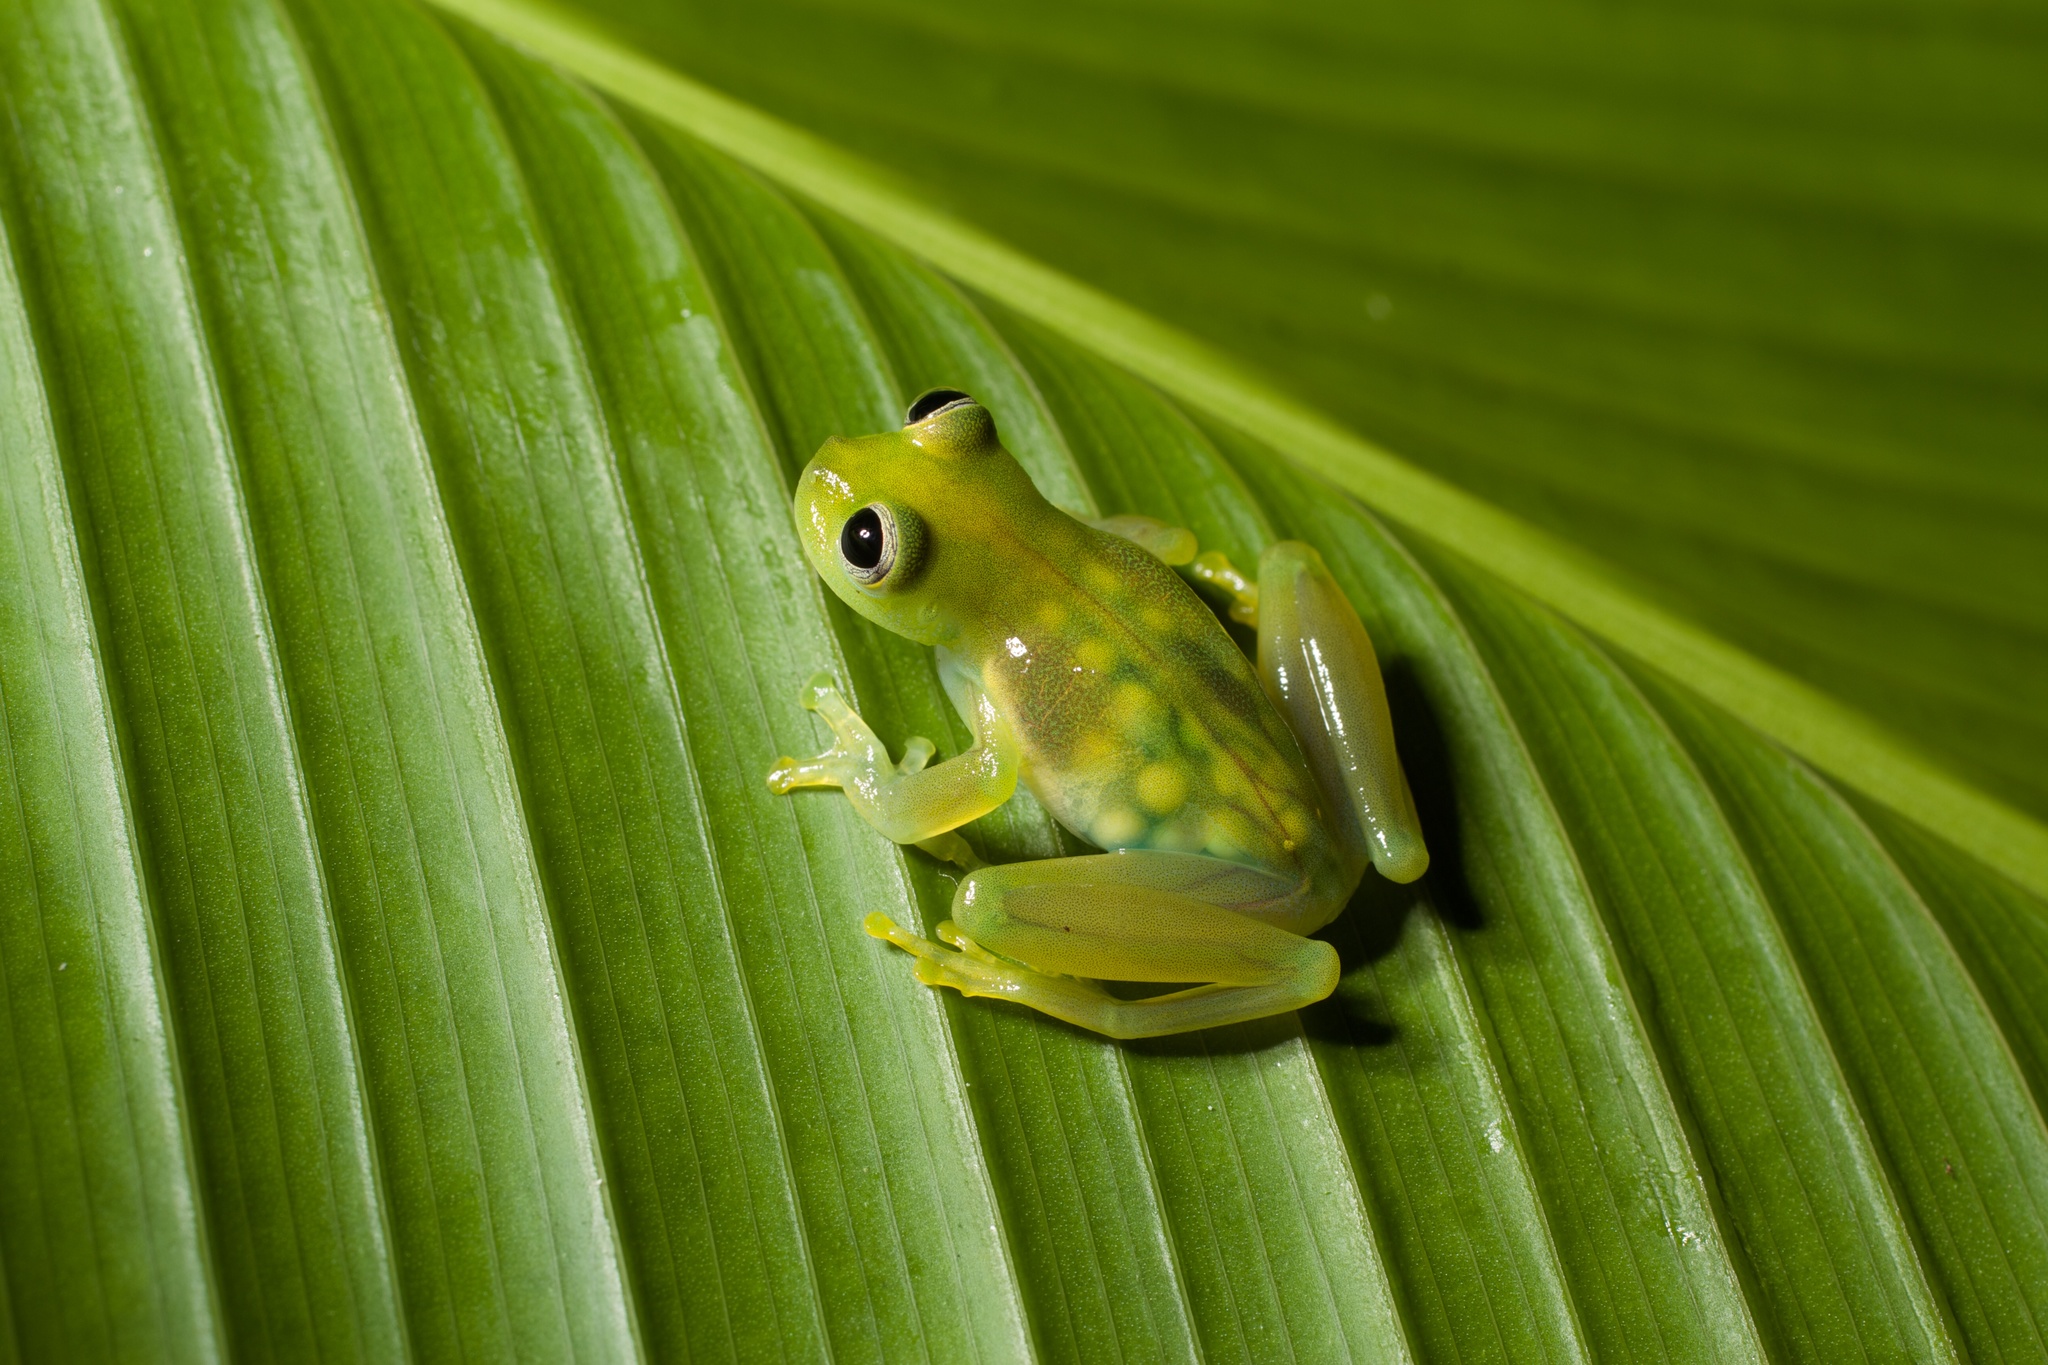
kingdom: Animalia
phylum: Chordata
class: Amphibia
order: Anura
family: Centrolenidae
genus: Teratohyla
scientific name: Teratohyla spinosa
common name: Spiny cochran frog
